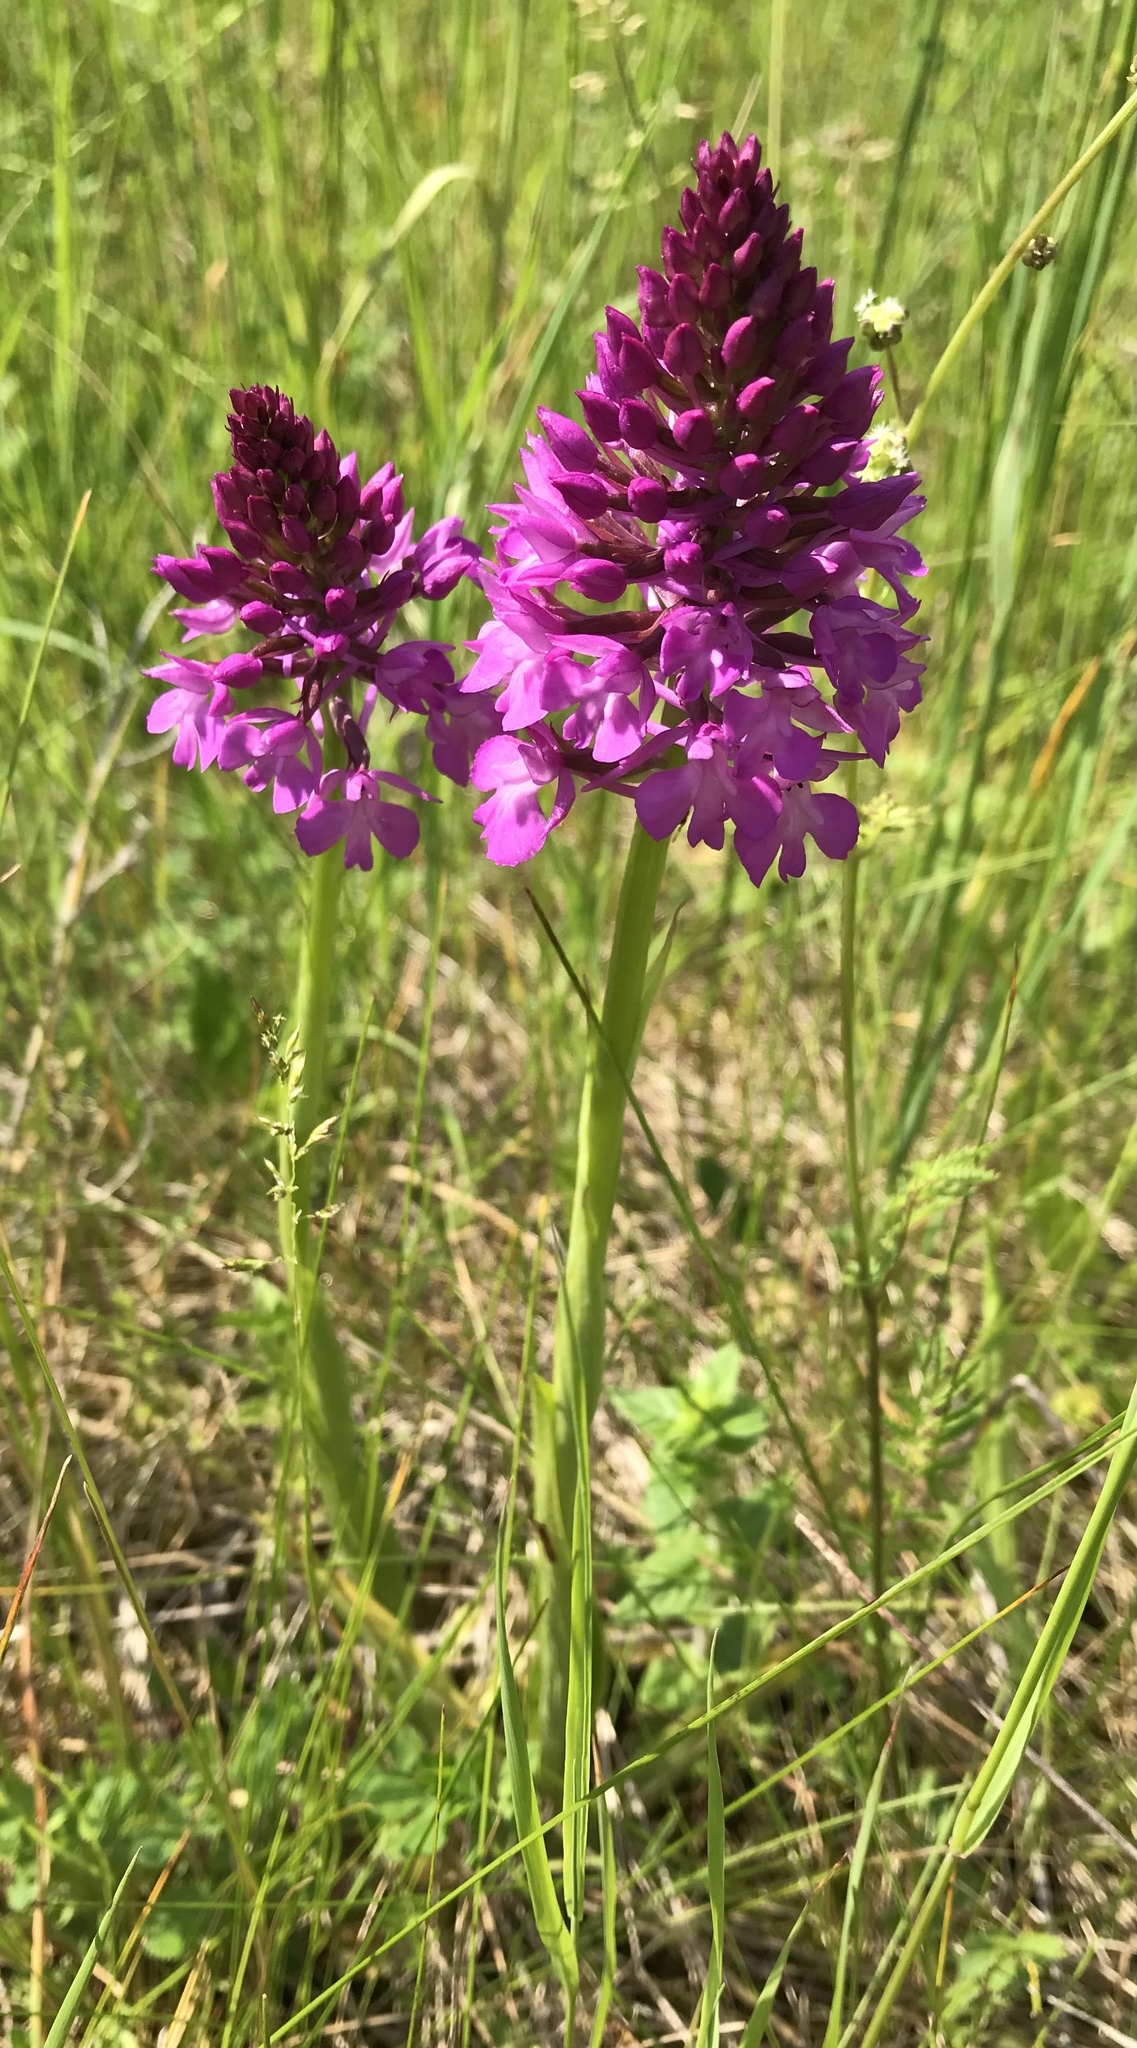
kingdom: Plantae
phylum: Tracheophyta
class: Liliopsida
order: Asparagales
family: Orchidaceae
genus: Anacamptis
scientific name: Anacamptis pyramidalis
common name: Pyramidal orchid
